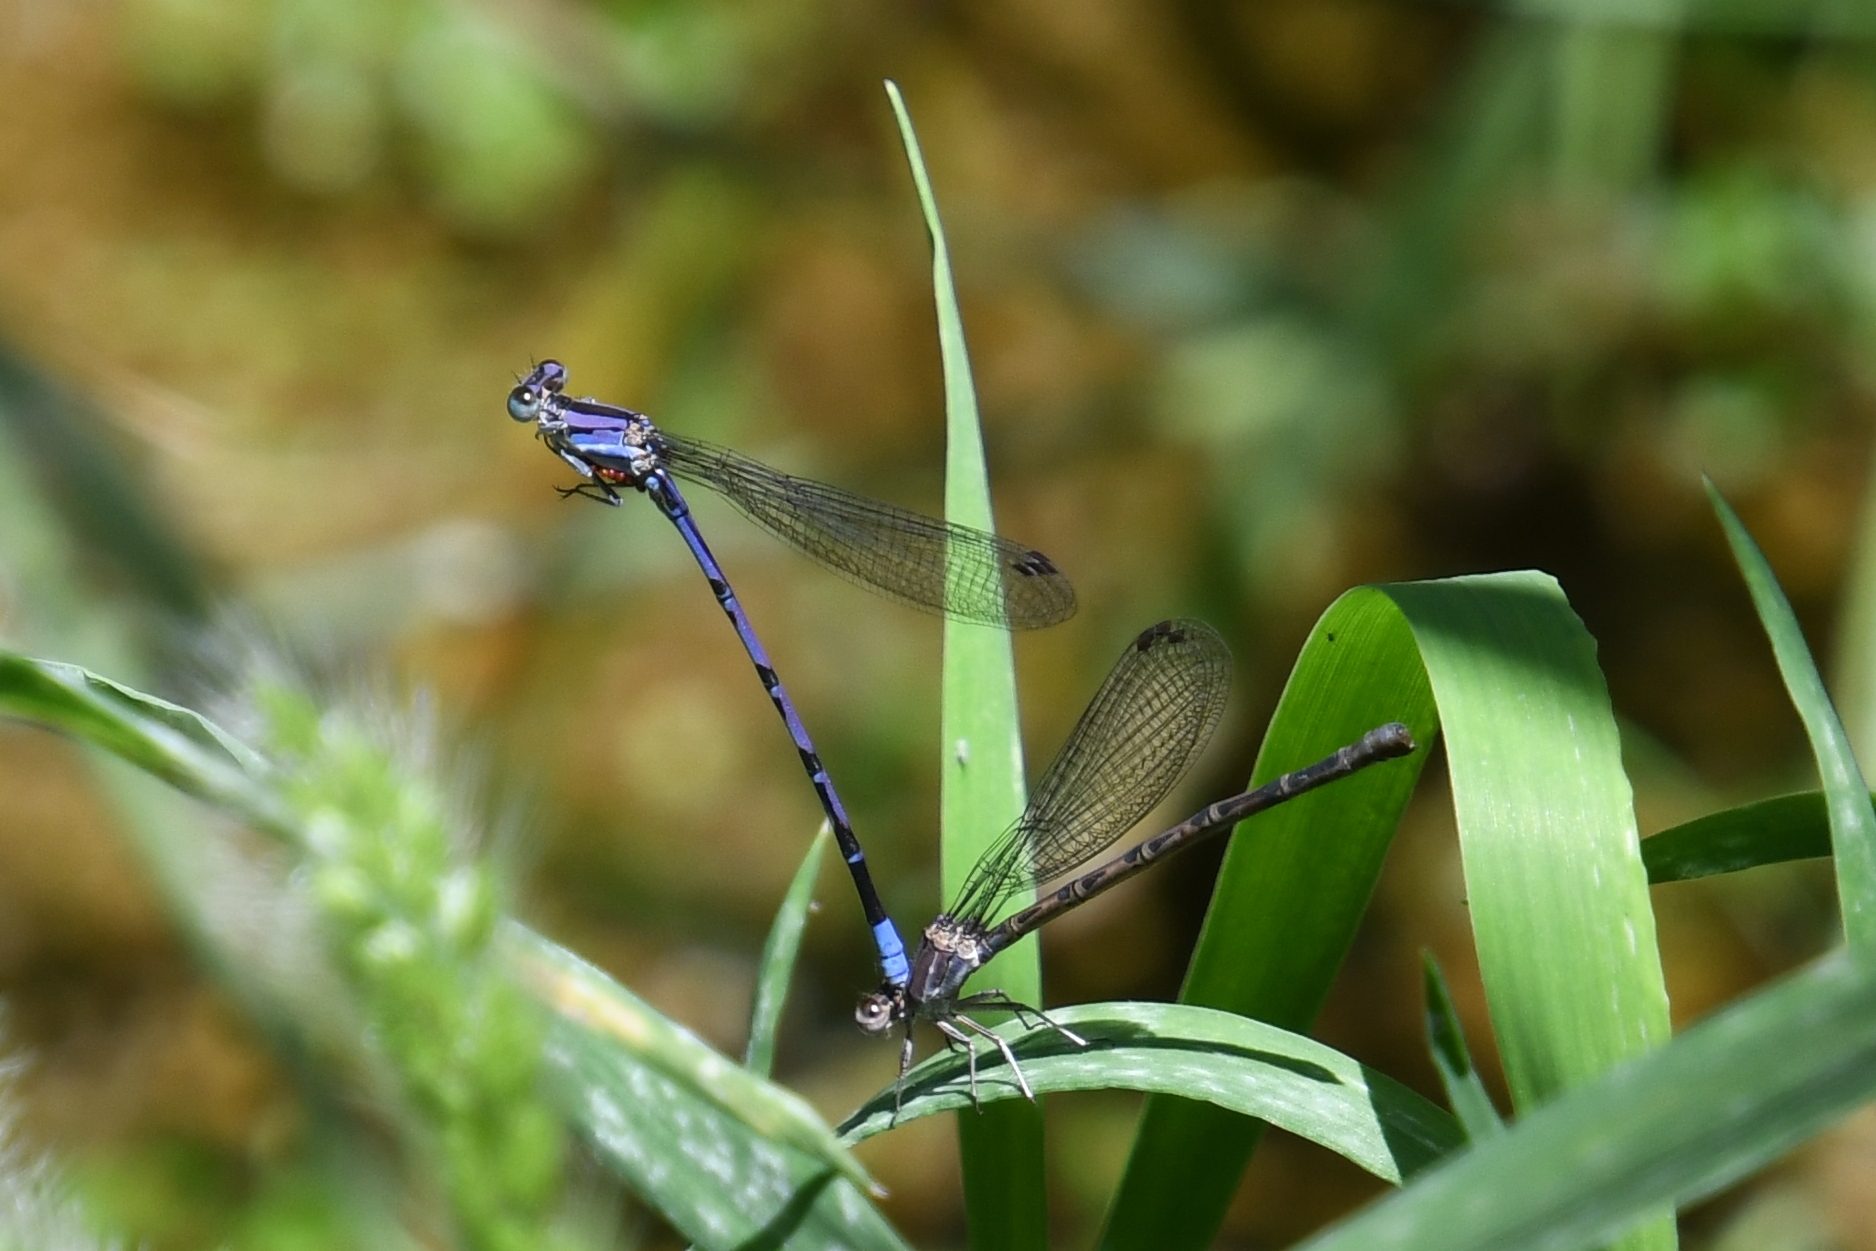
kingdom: Animalia
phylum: Arthropoda
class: Insecta
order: Odonata
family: Coenagrionidae
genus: Argia
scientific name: Argia funebris
